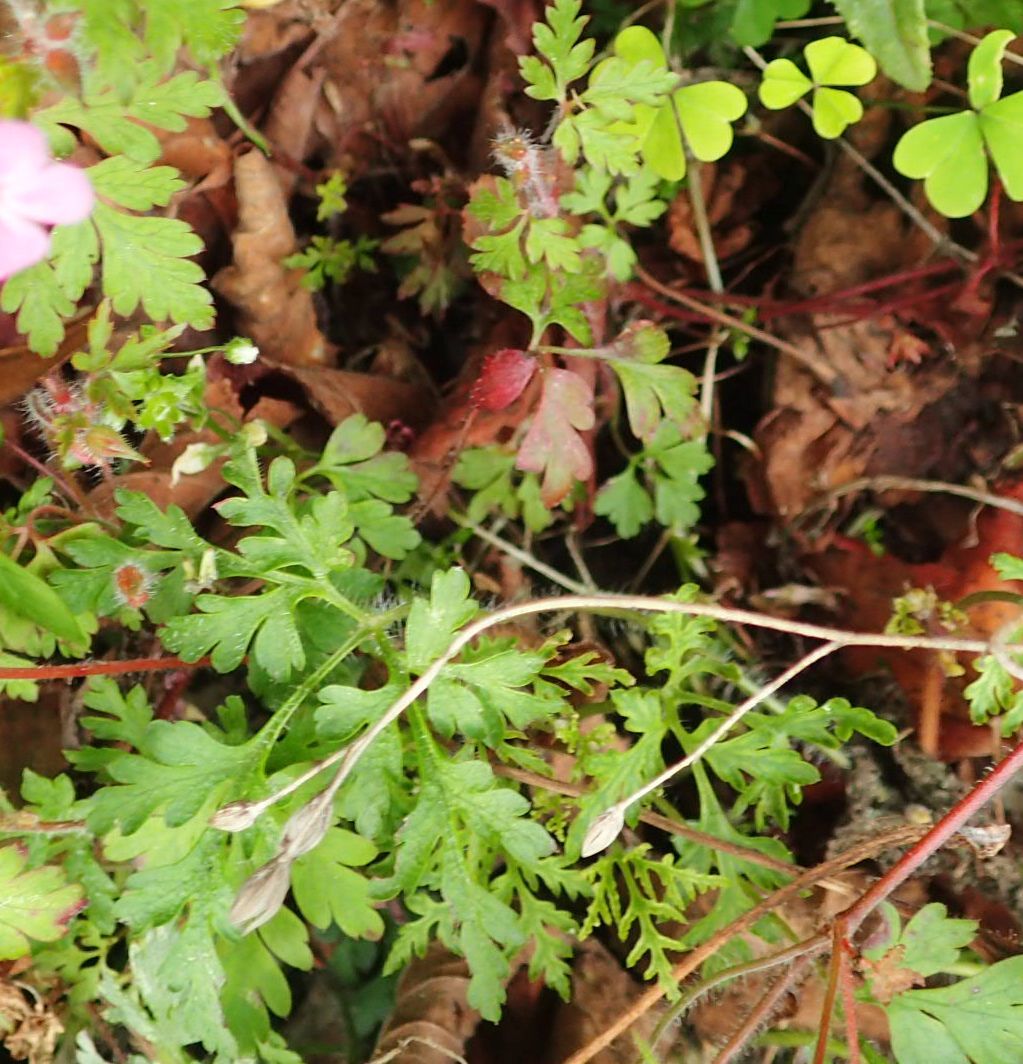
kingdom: Plantae
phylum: Tracheophyta
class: Magnoliopsida
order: Geraniales
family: Geraniaceae
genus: Geranium
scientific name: Geranium robertianum
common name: Herb-robert
